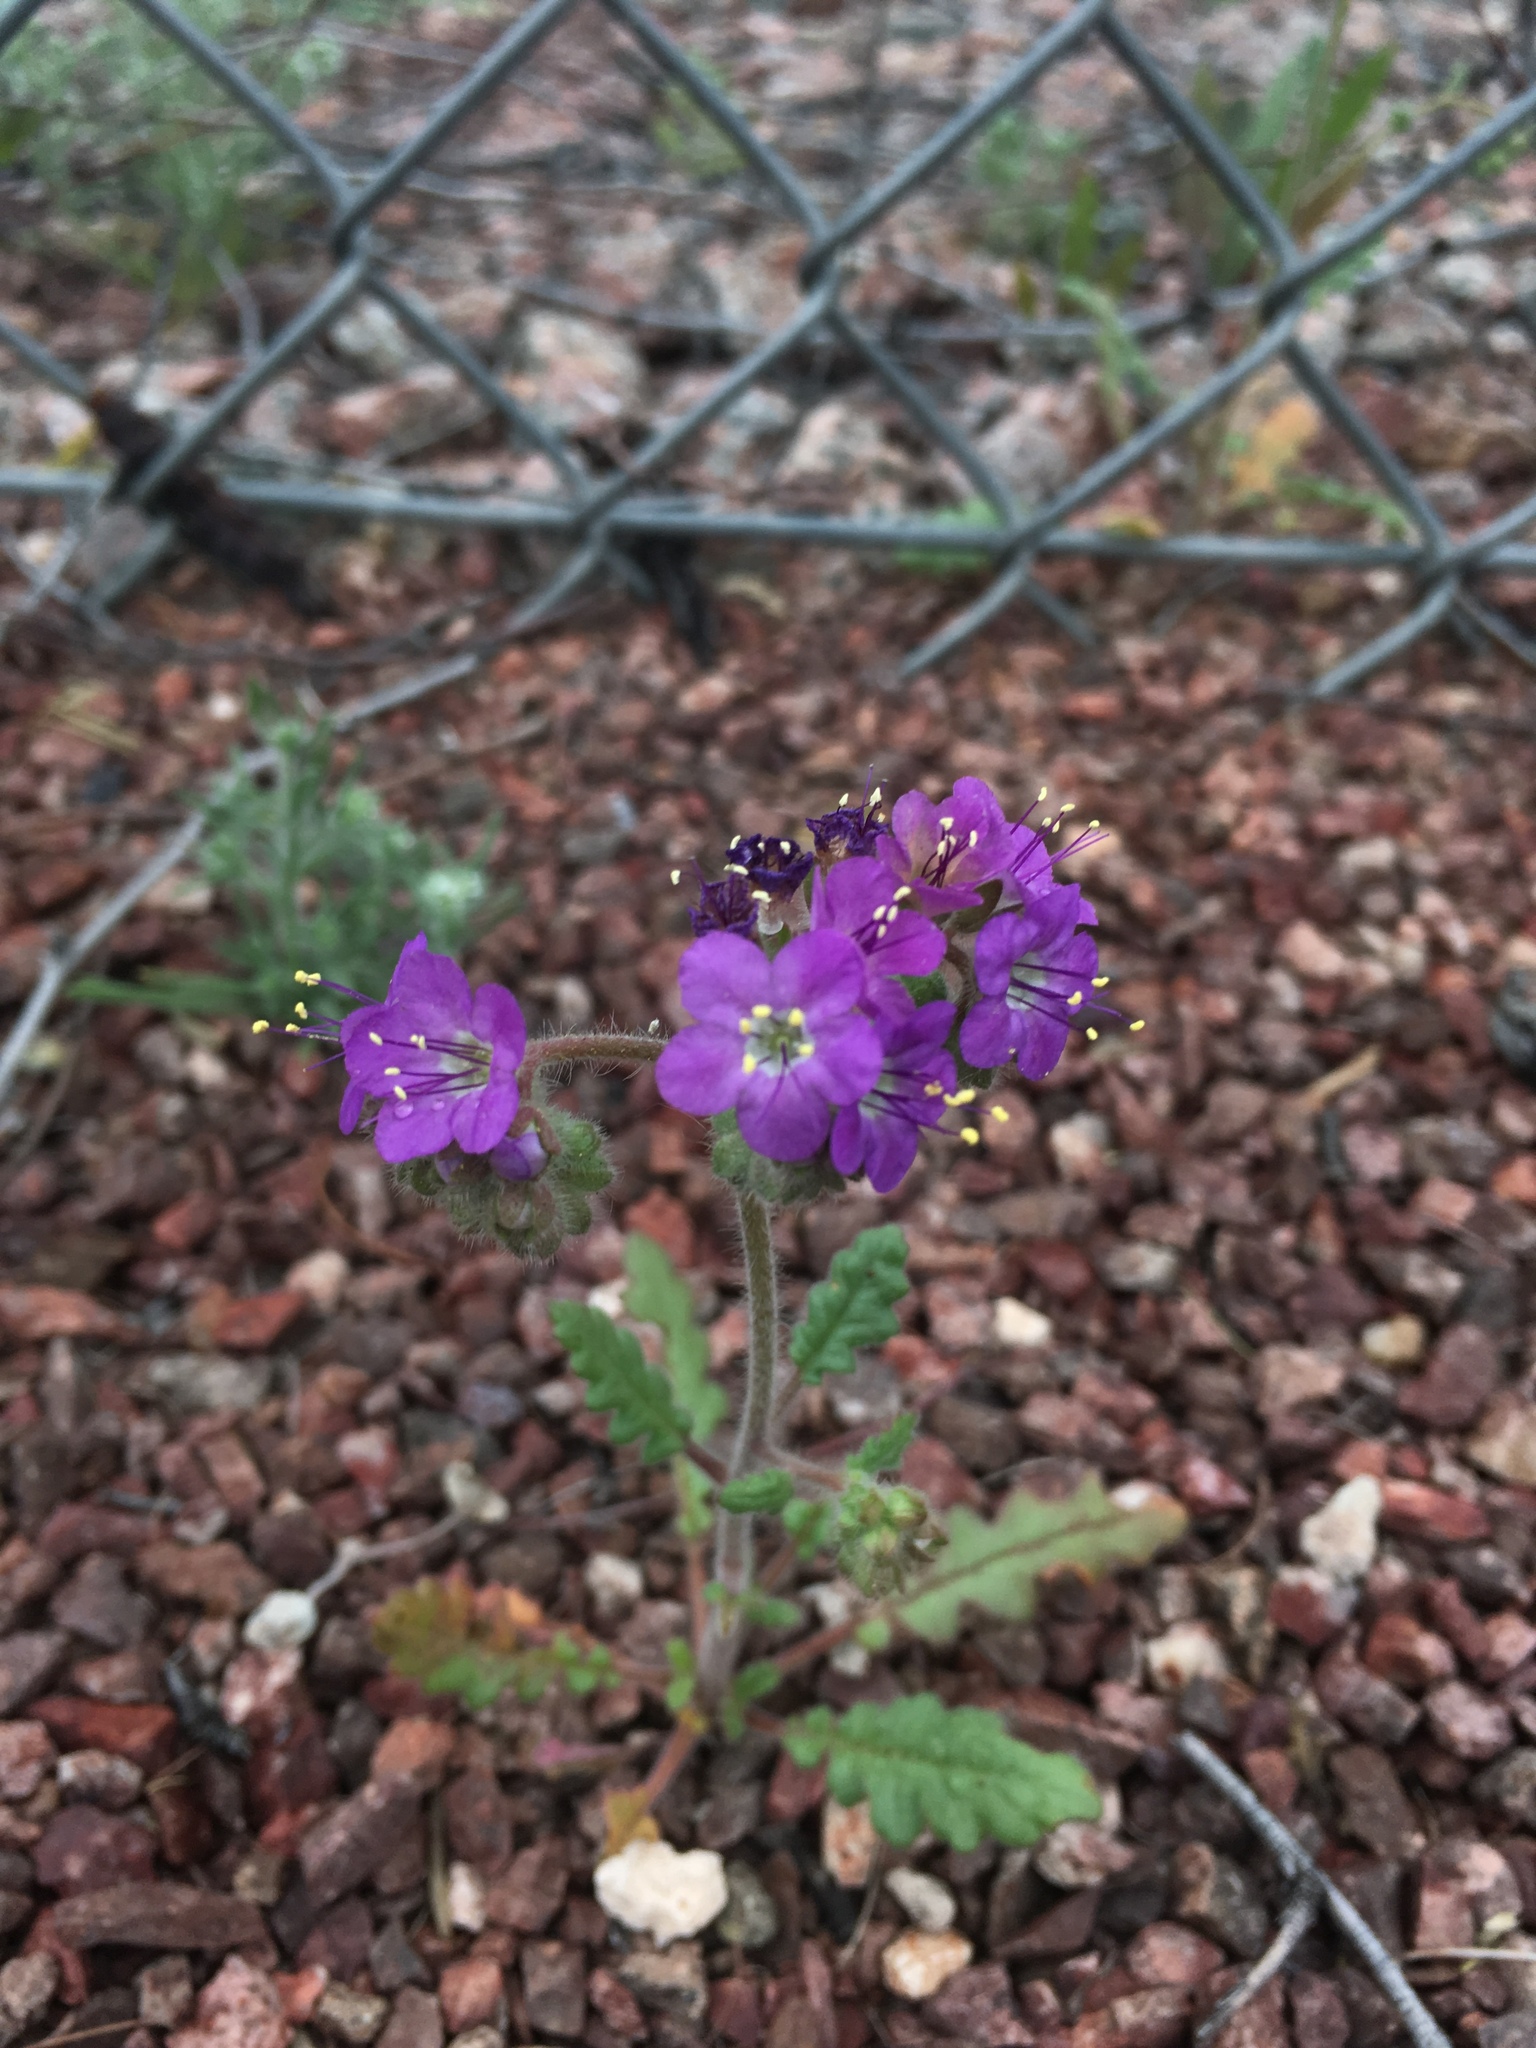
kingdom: Plantae
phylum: Tracheophyta
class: Magnoliopsida
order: Boraginales
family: Hydrophyllaceae
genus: Phacelia
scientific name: Phacelia crenulata
